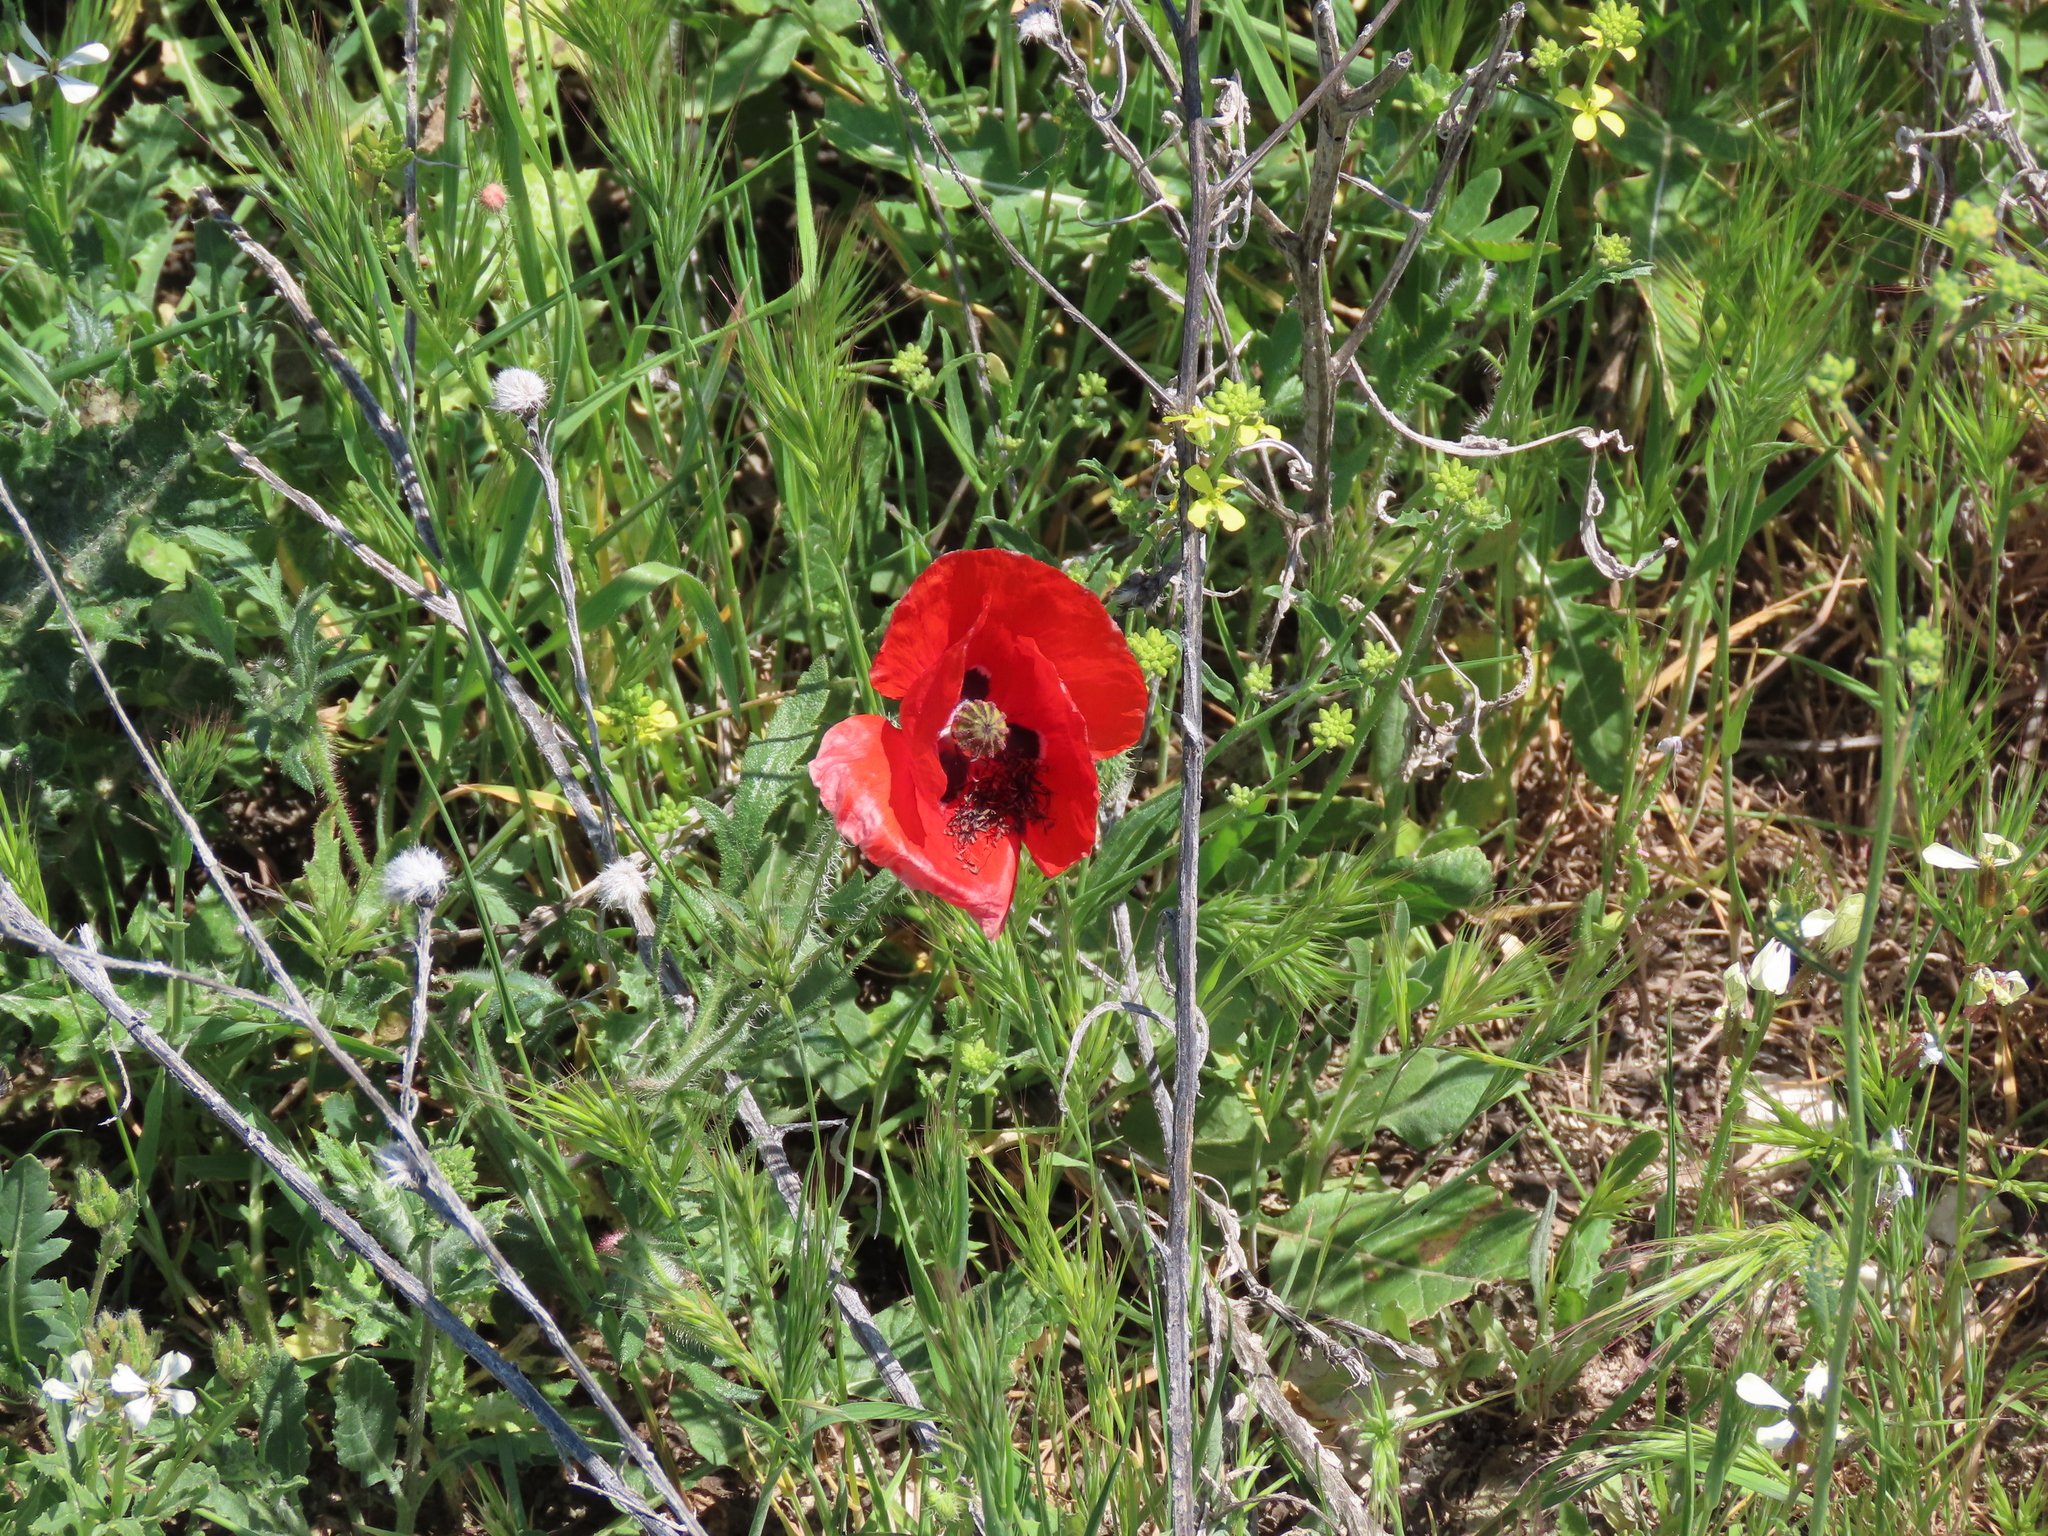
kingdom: Plantae
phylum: Tracheophyta
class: Magnoliopsida
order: Ranunculales
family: Papaveraceae
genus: Papaver
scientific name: Papaver rhoeas
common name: Corn poppy
